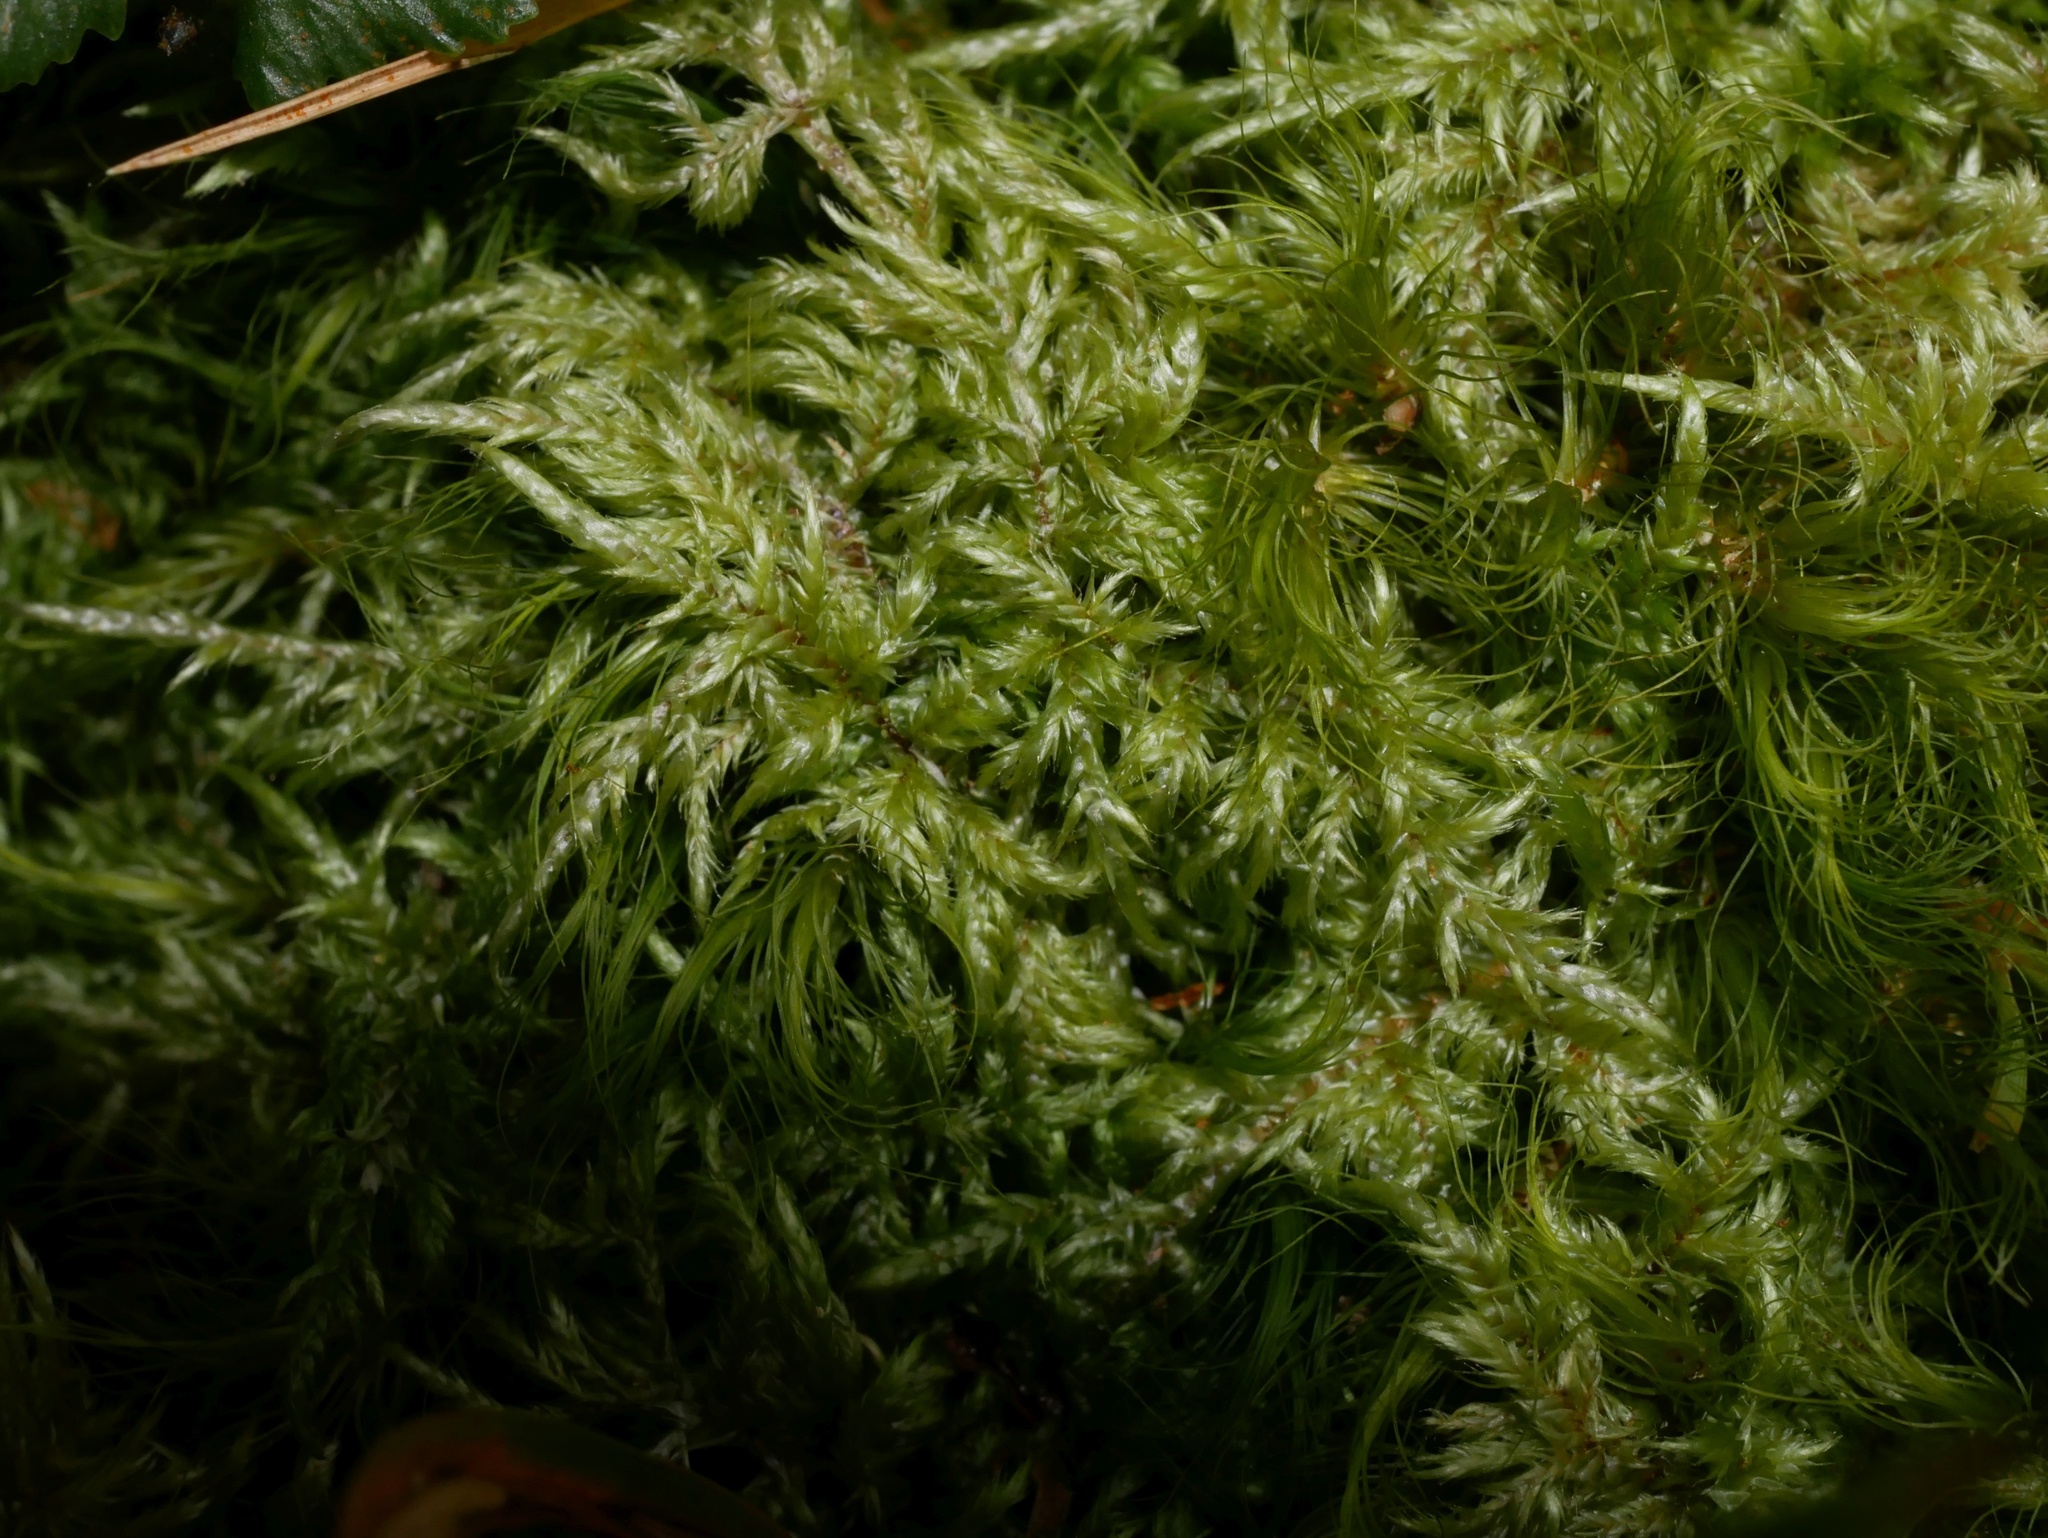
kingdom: Plantae
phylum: Bryophyta
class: Bryopsida
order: Hypnales
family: Pylaisiadelphaceae
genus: Wijkia
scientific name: Wijkia extenuata
